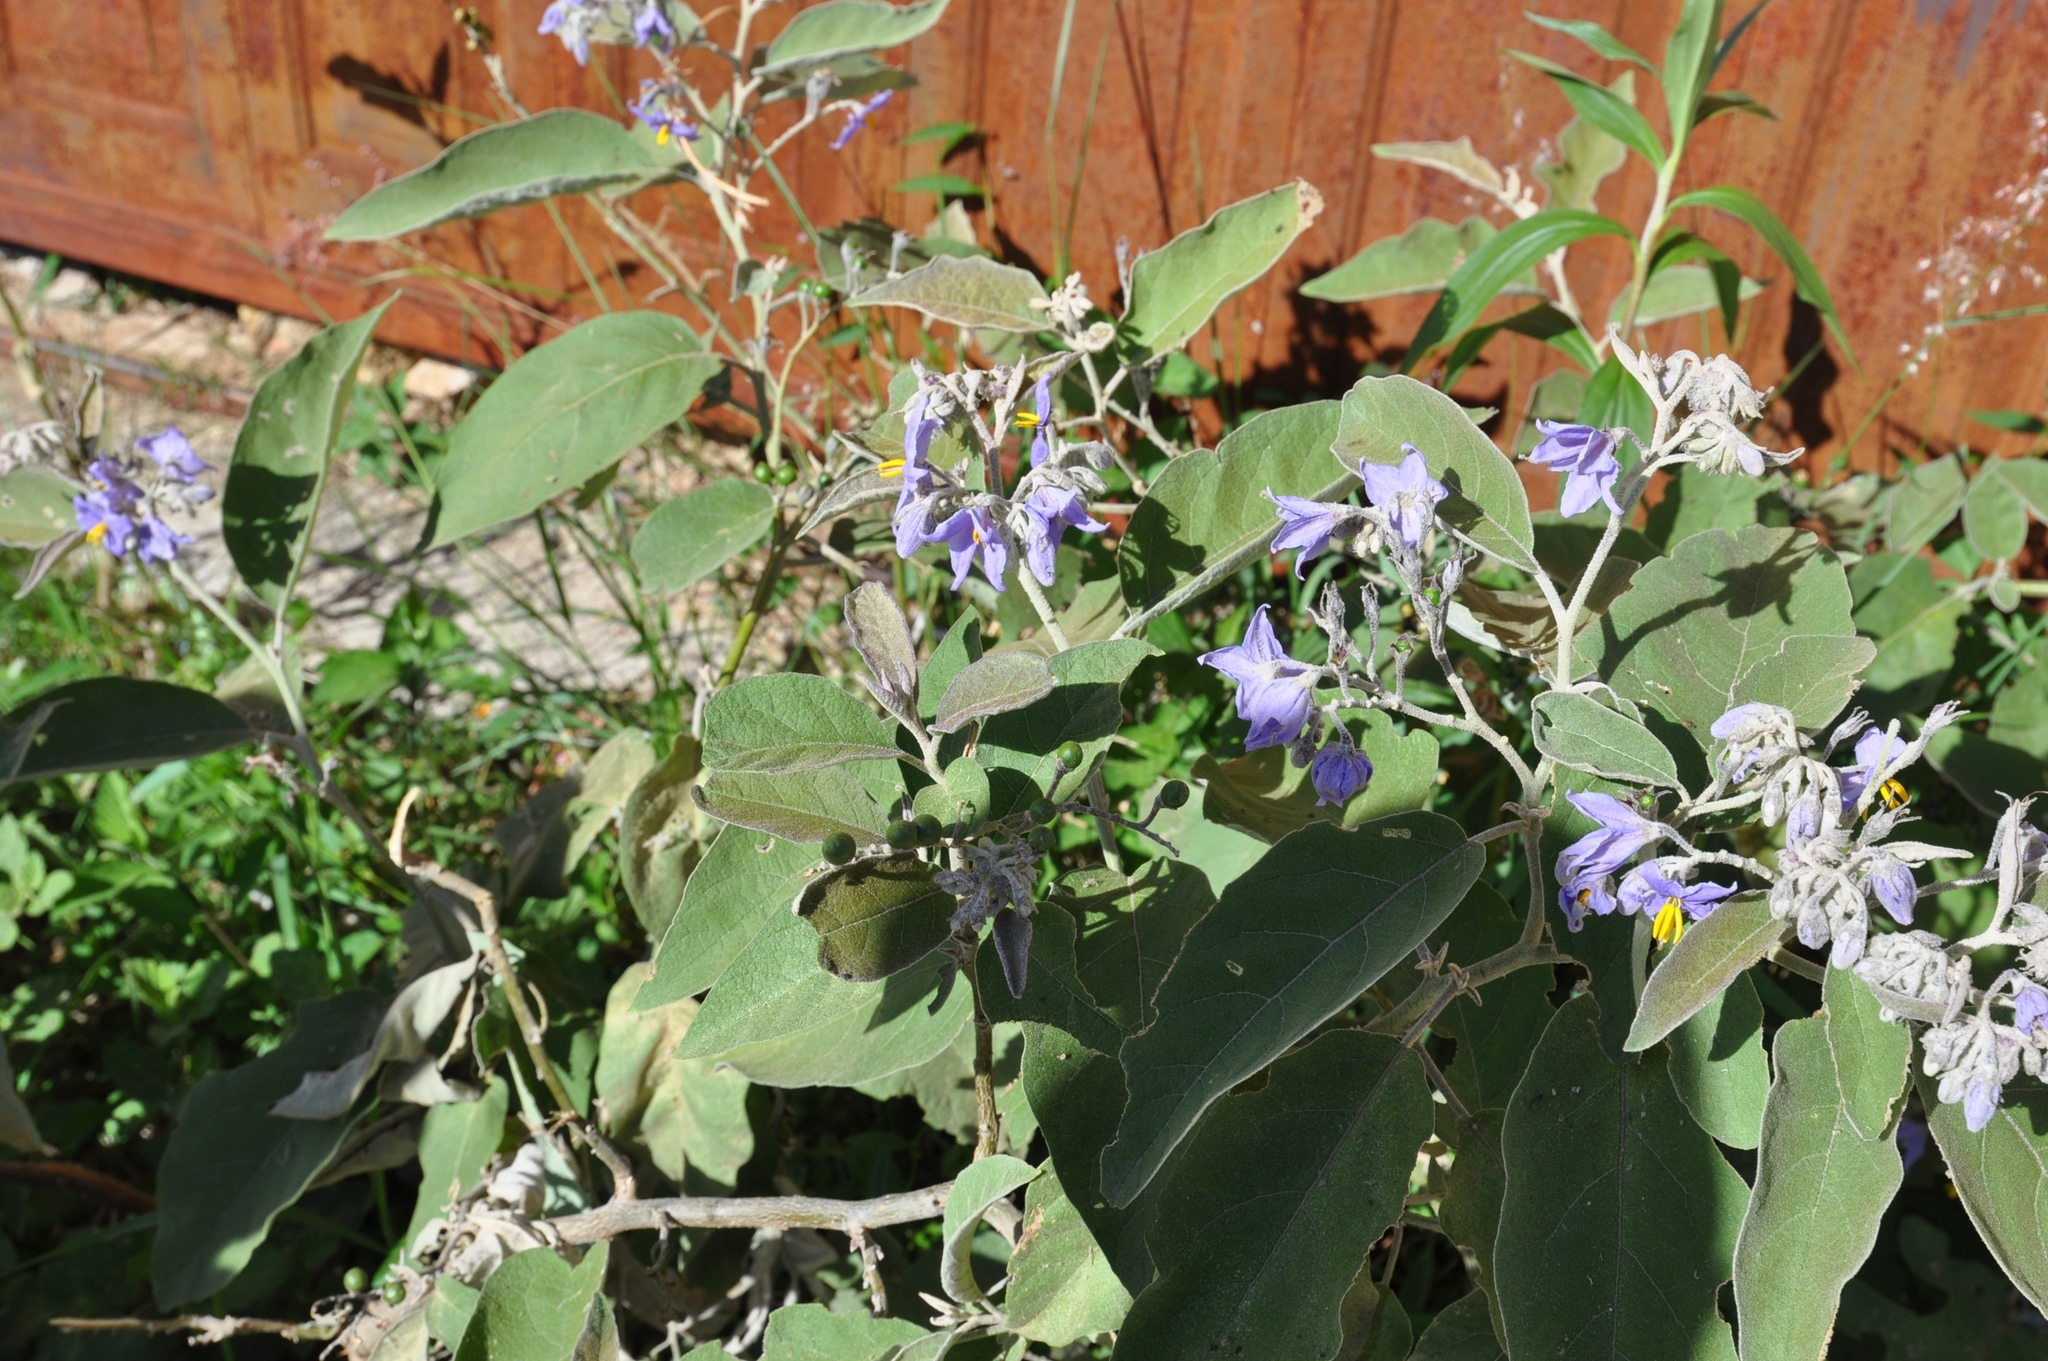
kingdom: Plantae
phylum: Tracheophyta
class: Magnoliopsida
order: Solanales
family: Solanaceae
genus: Solanum
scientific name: Solanum lanceolatum
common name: Orangeberry nightshade
